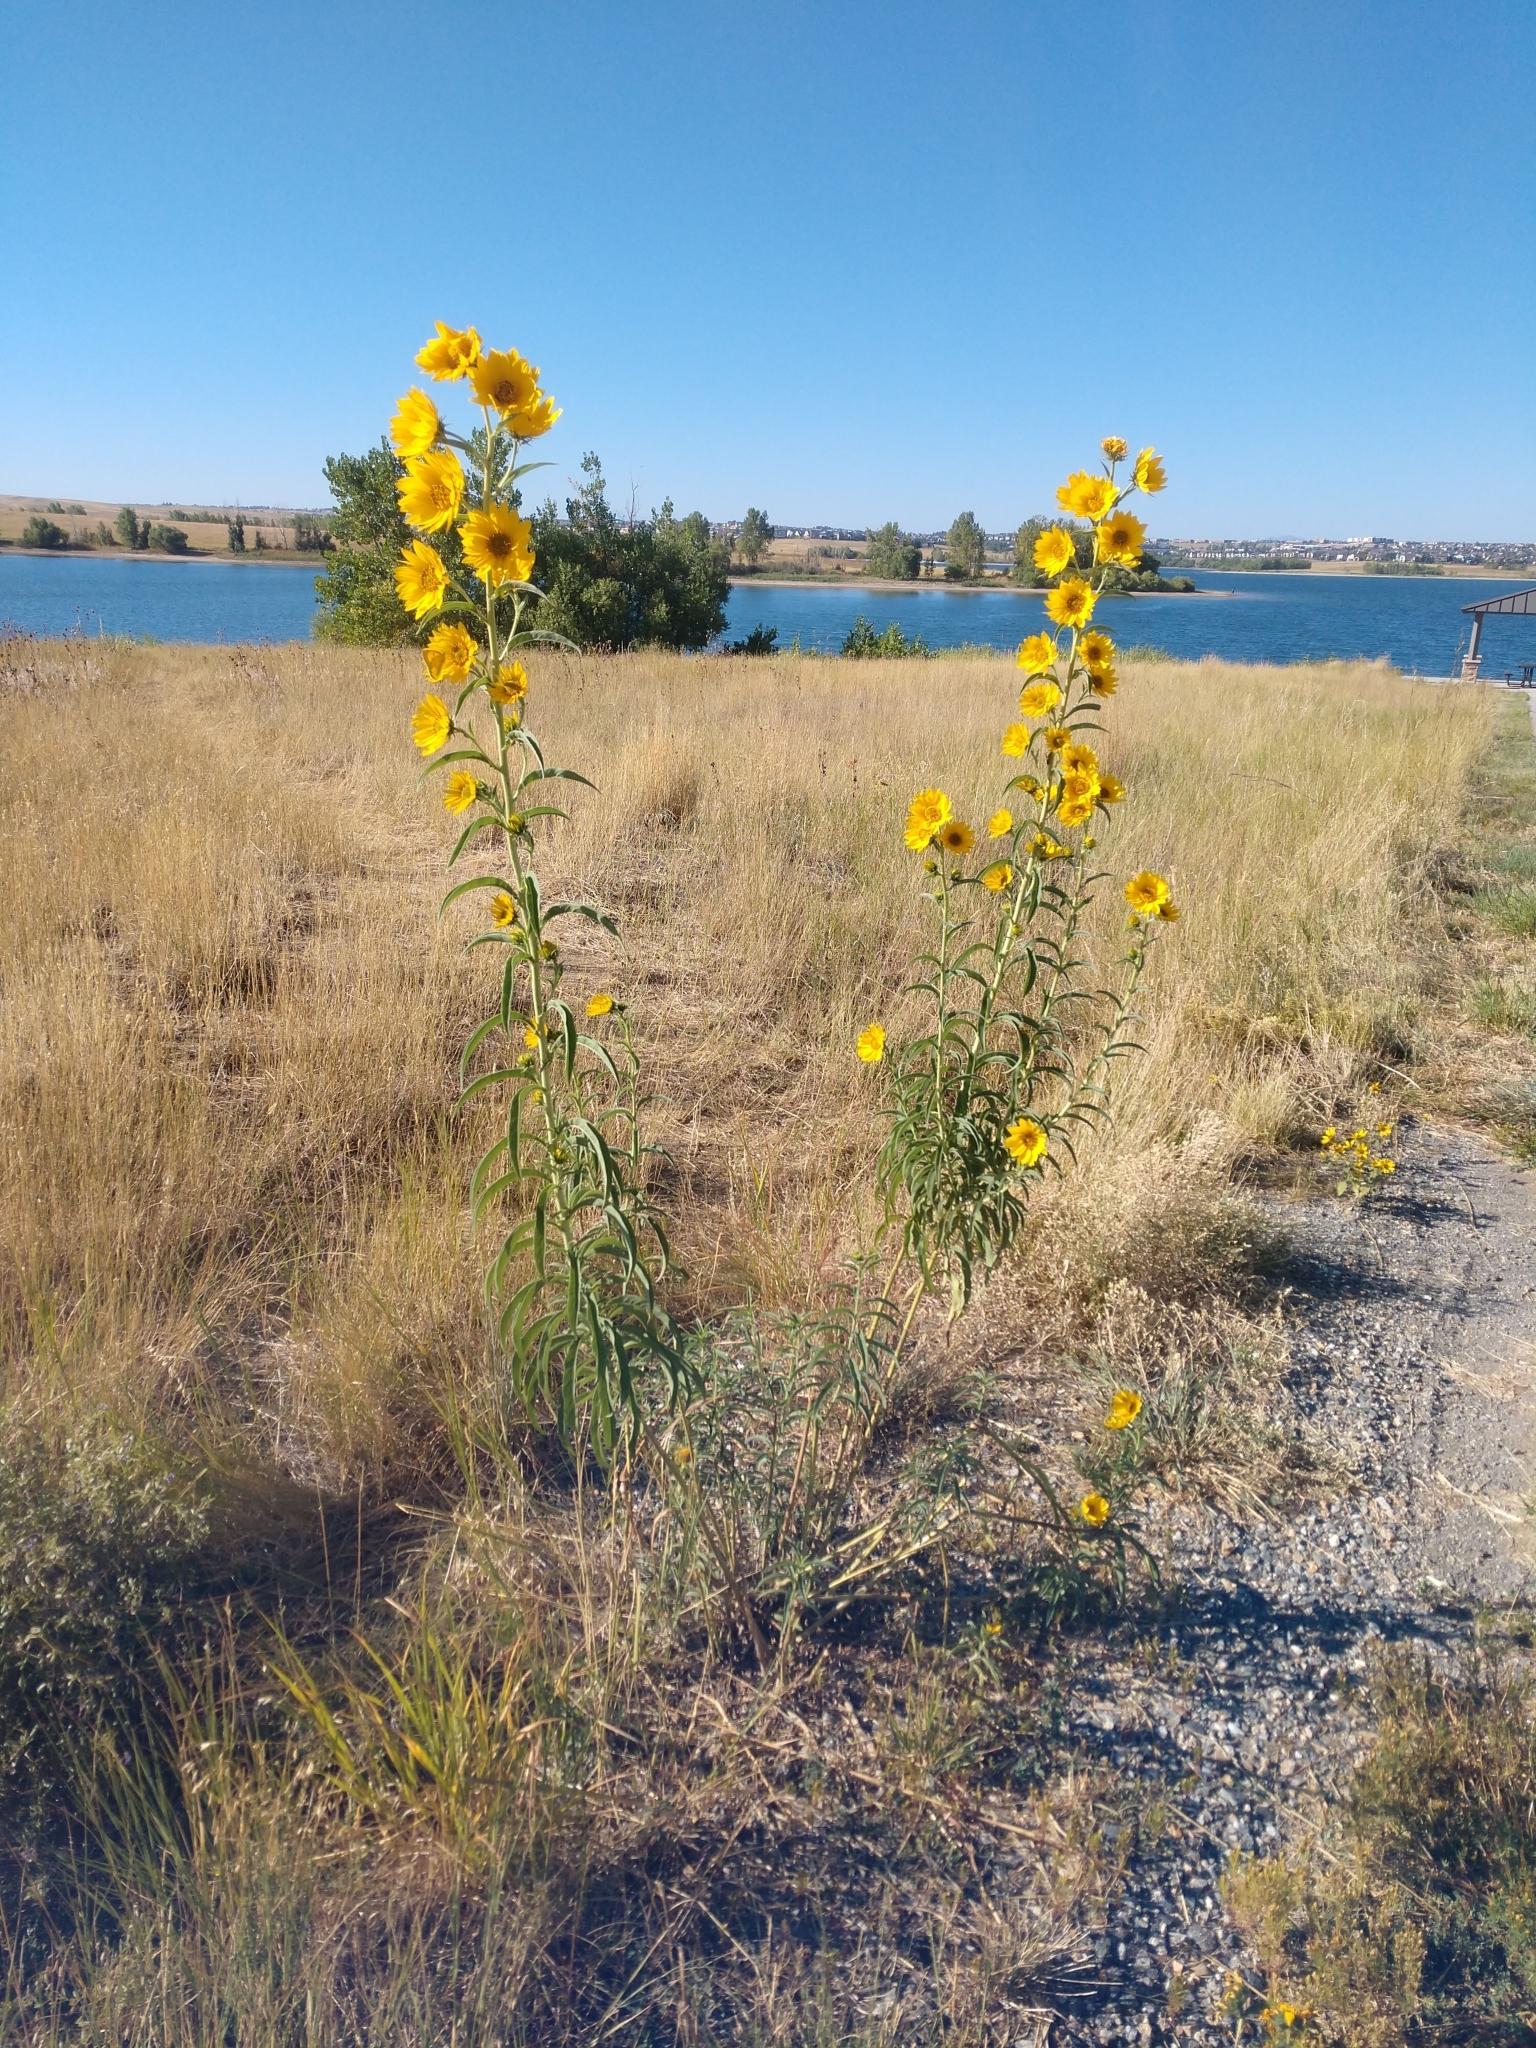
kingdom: Plantae
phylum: Tracheophyta
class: Magnoliopsida
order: Asterales
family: Asteraceae
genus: Helianthus
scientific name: Helianthus maximiliani
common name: Maximilian's sunflower
